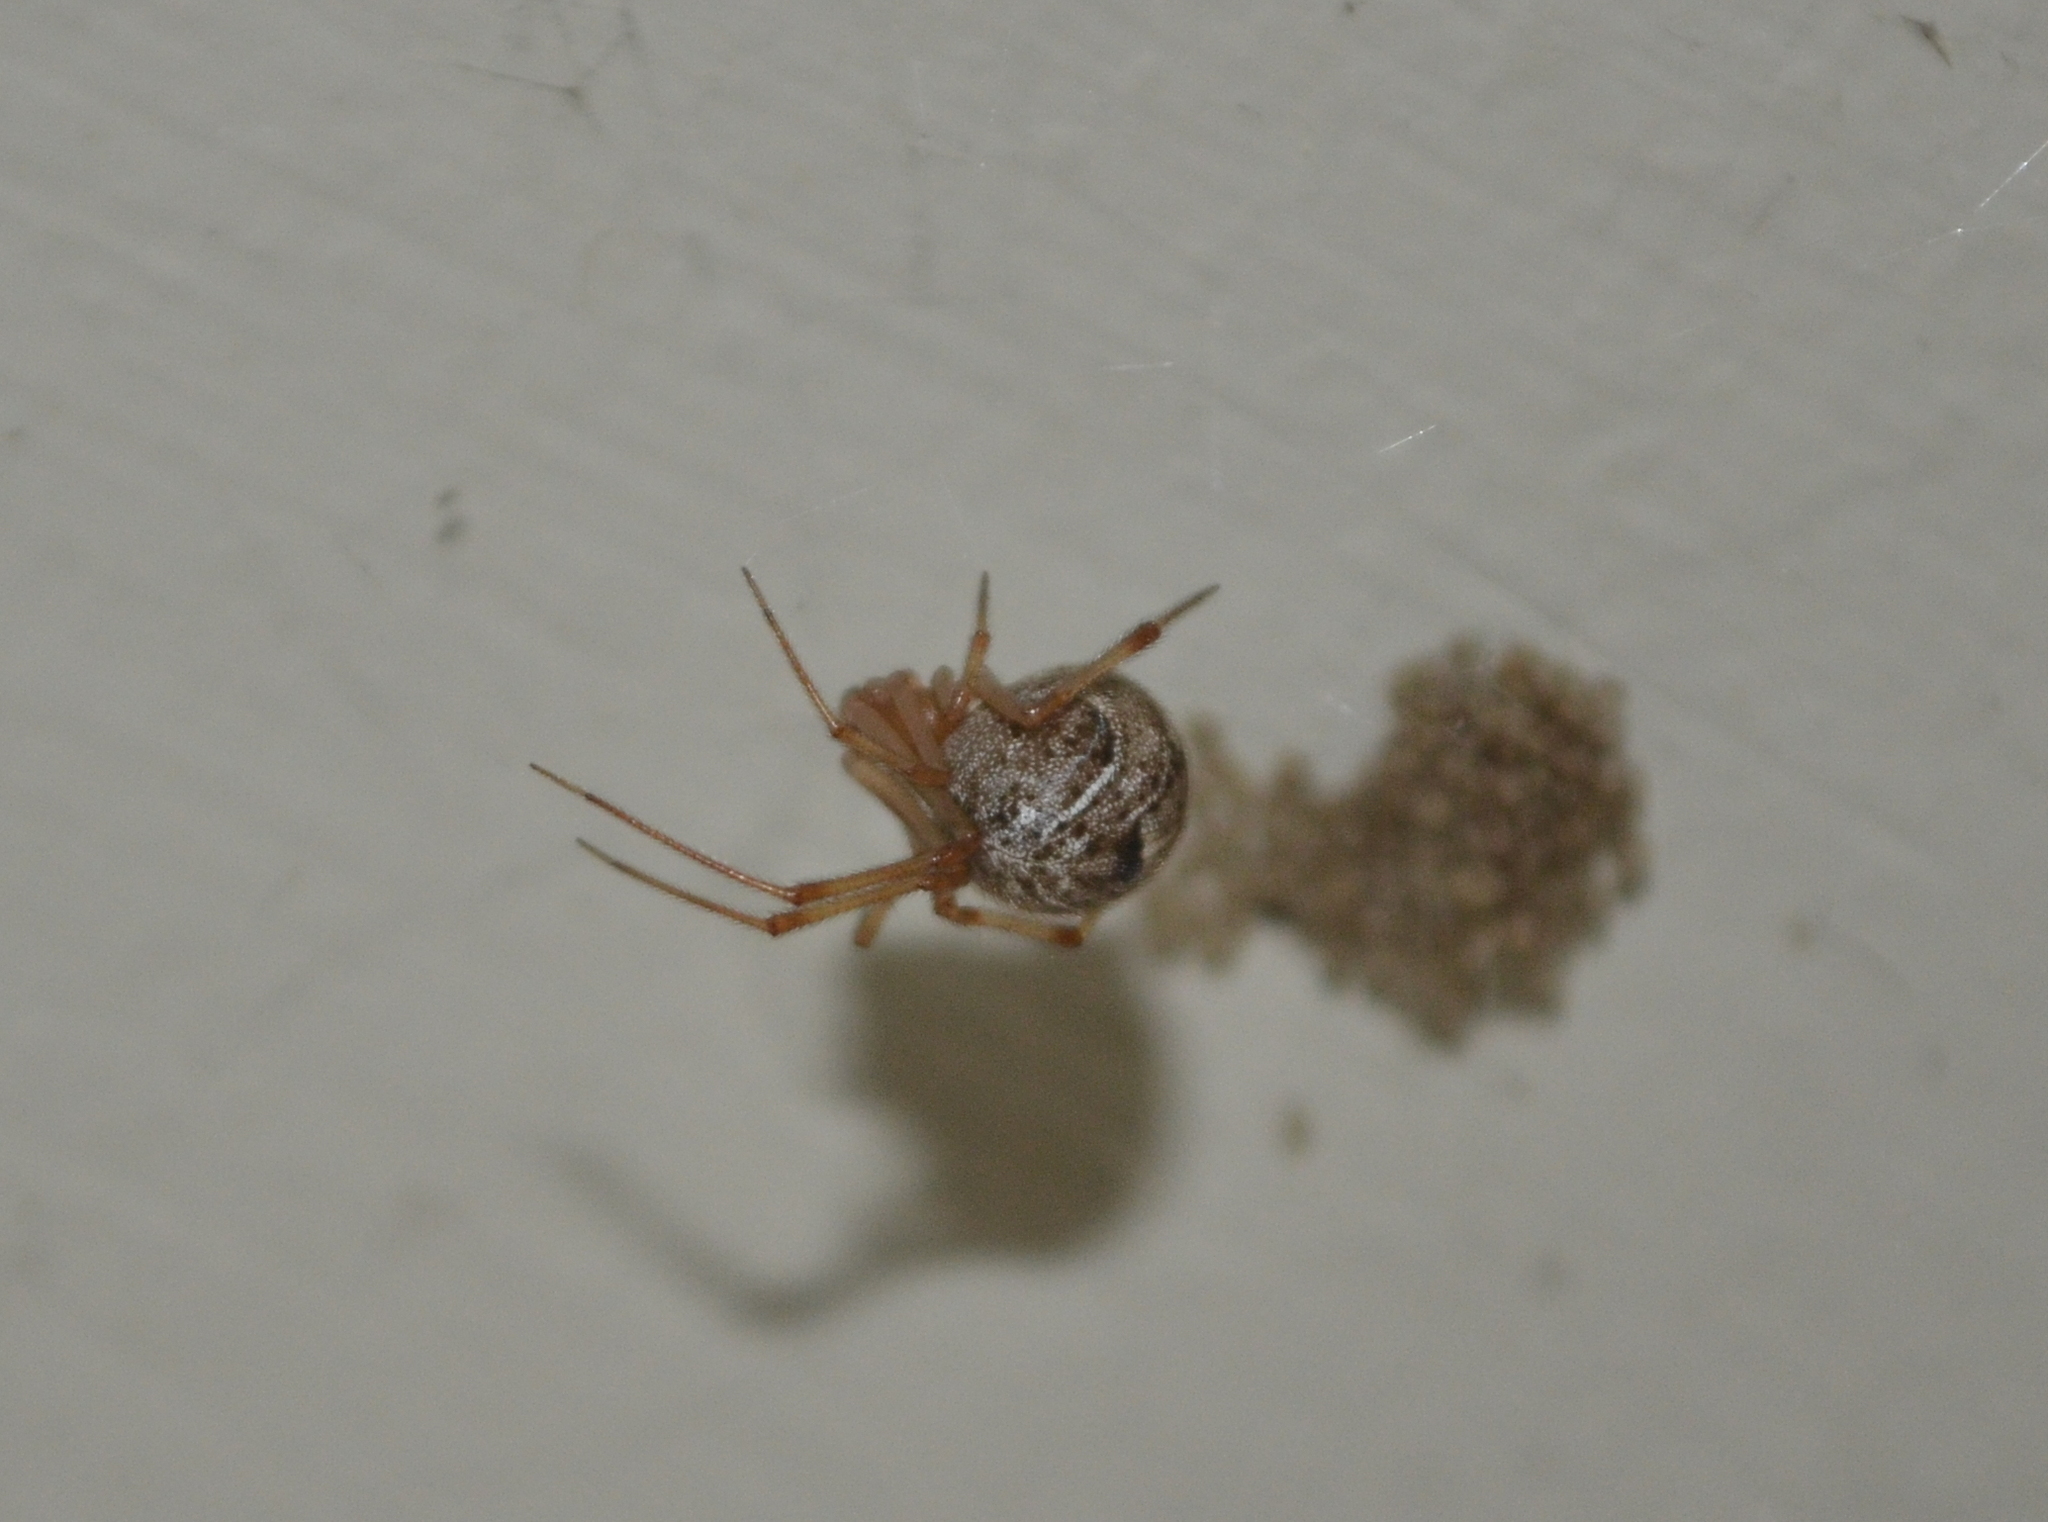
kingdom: Animalia
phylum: Arthropoda
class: Arachnida
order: Araneae
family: Theridiidae
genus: Parasteatoda
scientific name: Parasteatoda tepidariorum
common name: Common house spider
